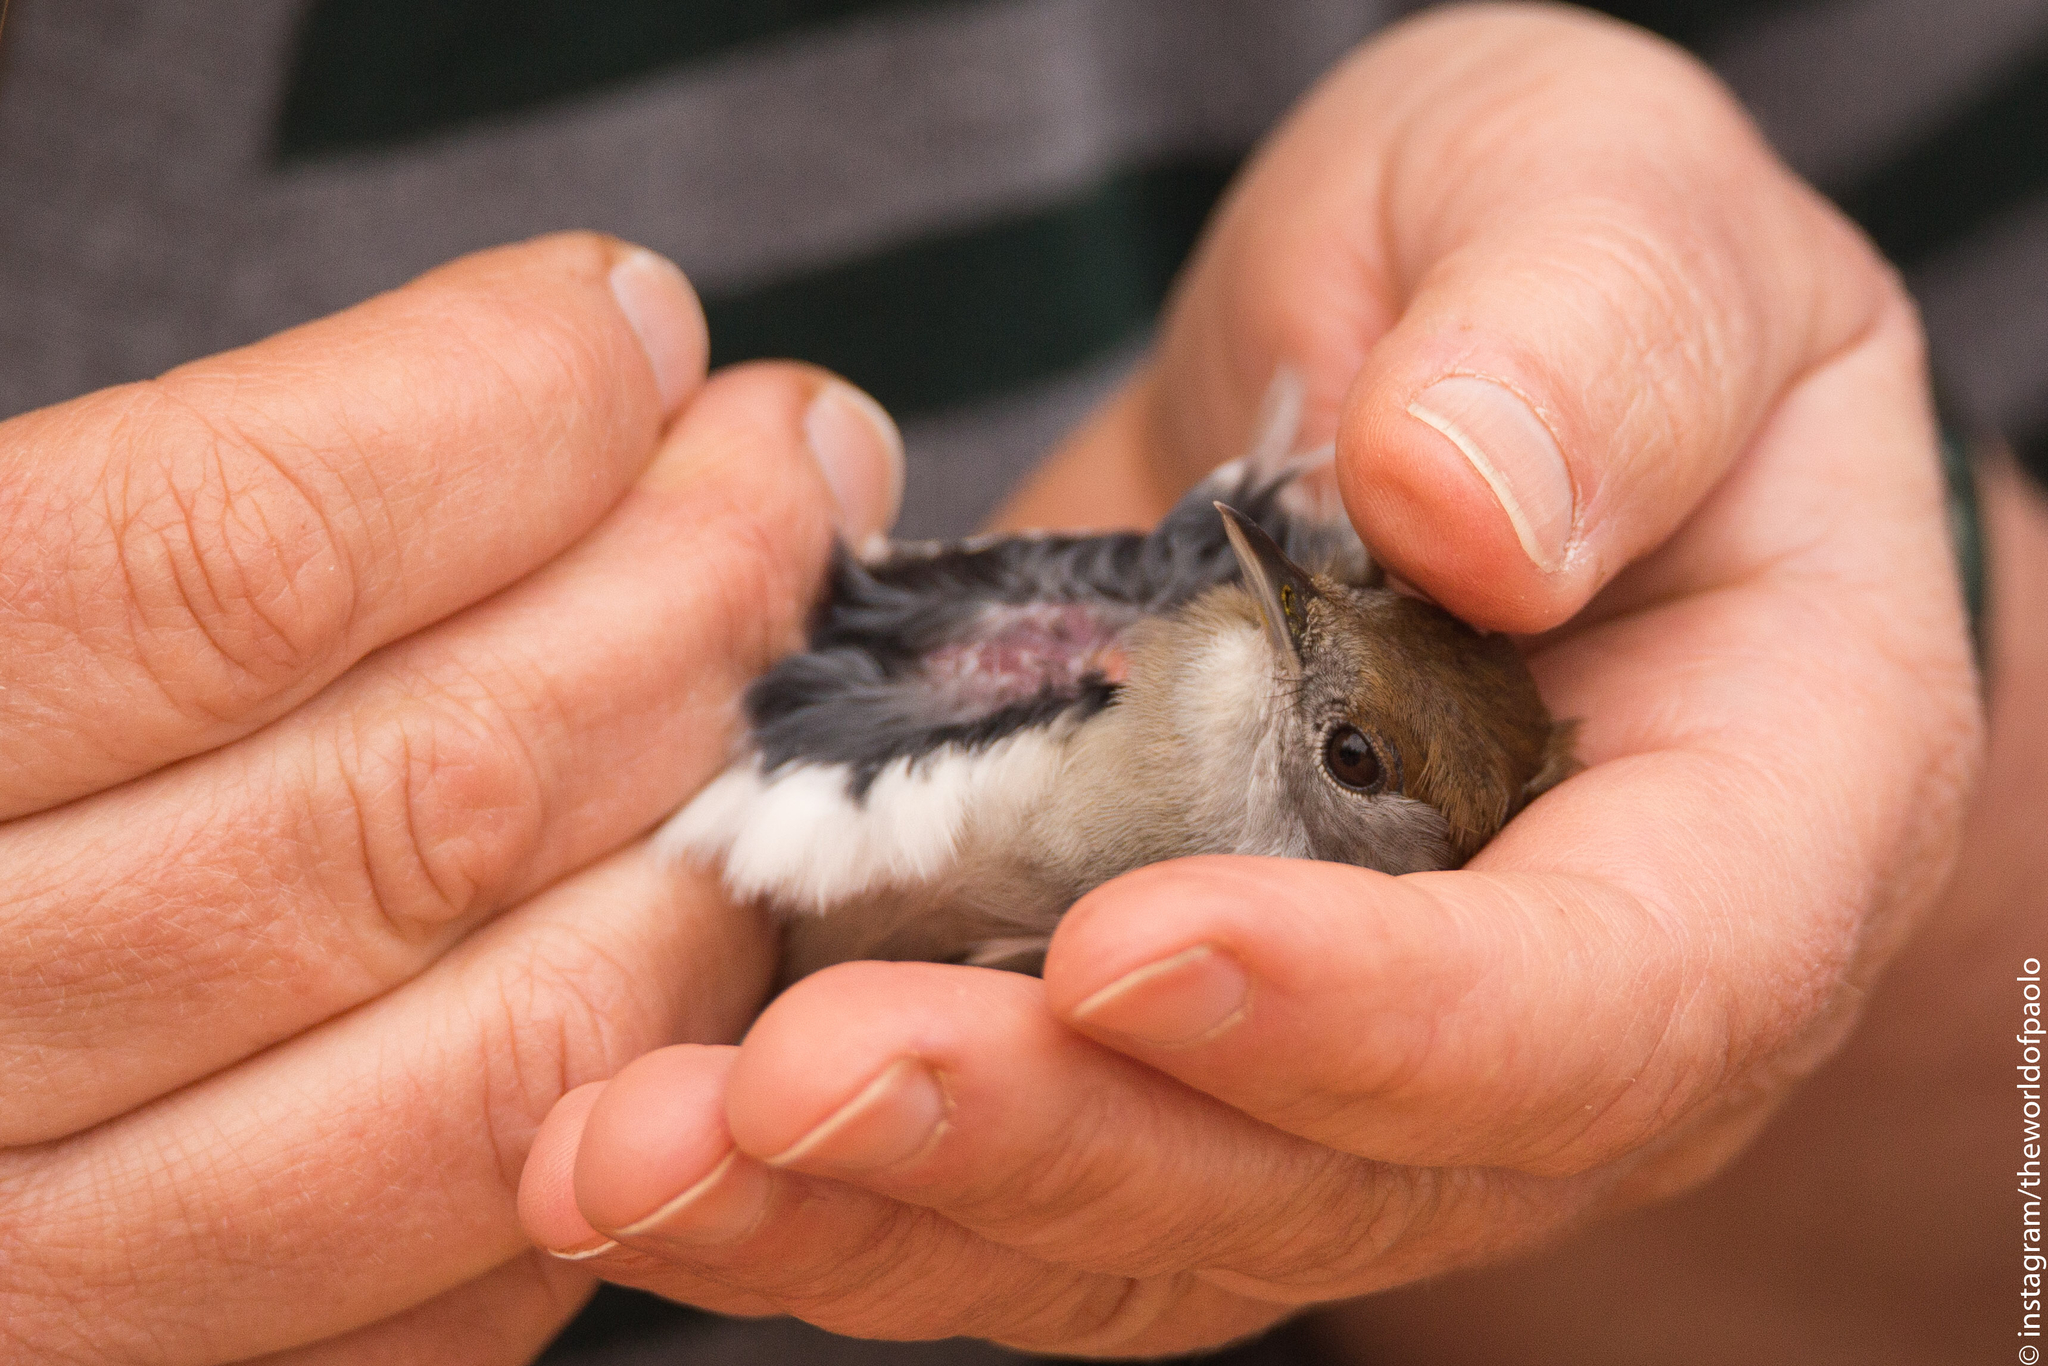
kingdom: Animalia
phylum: Chordata
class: Aves
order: Passeriformes
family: Sylviidae
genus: Sylvia
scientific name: Sylvia atricapilla
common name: Eurasian blackcap
